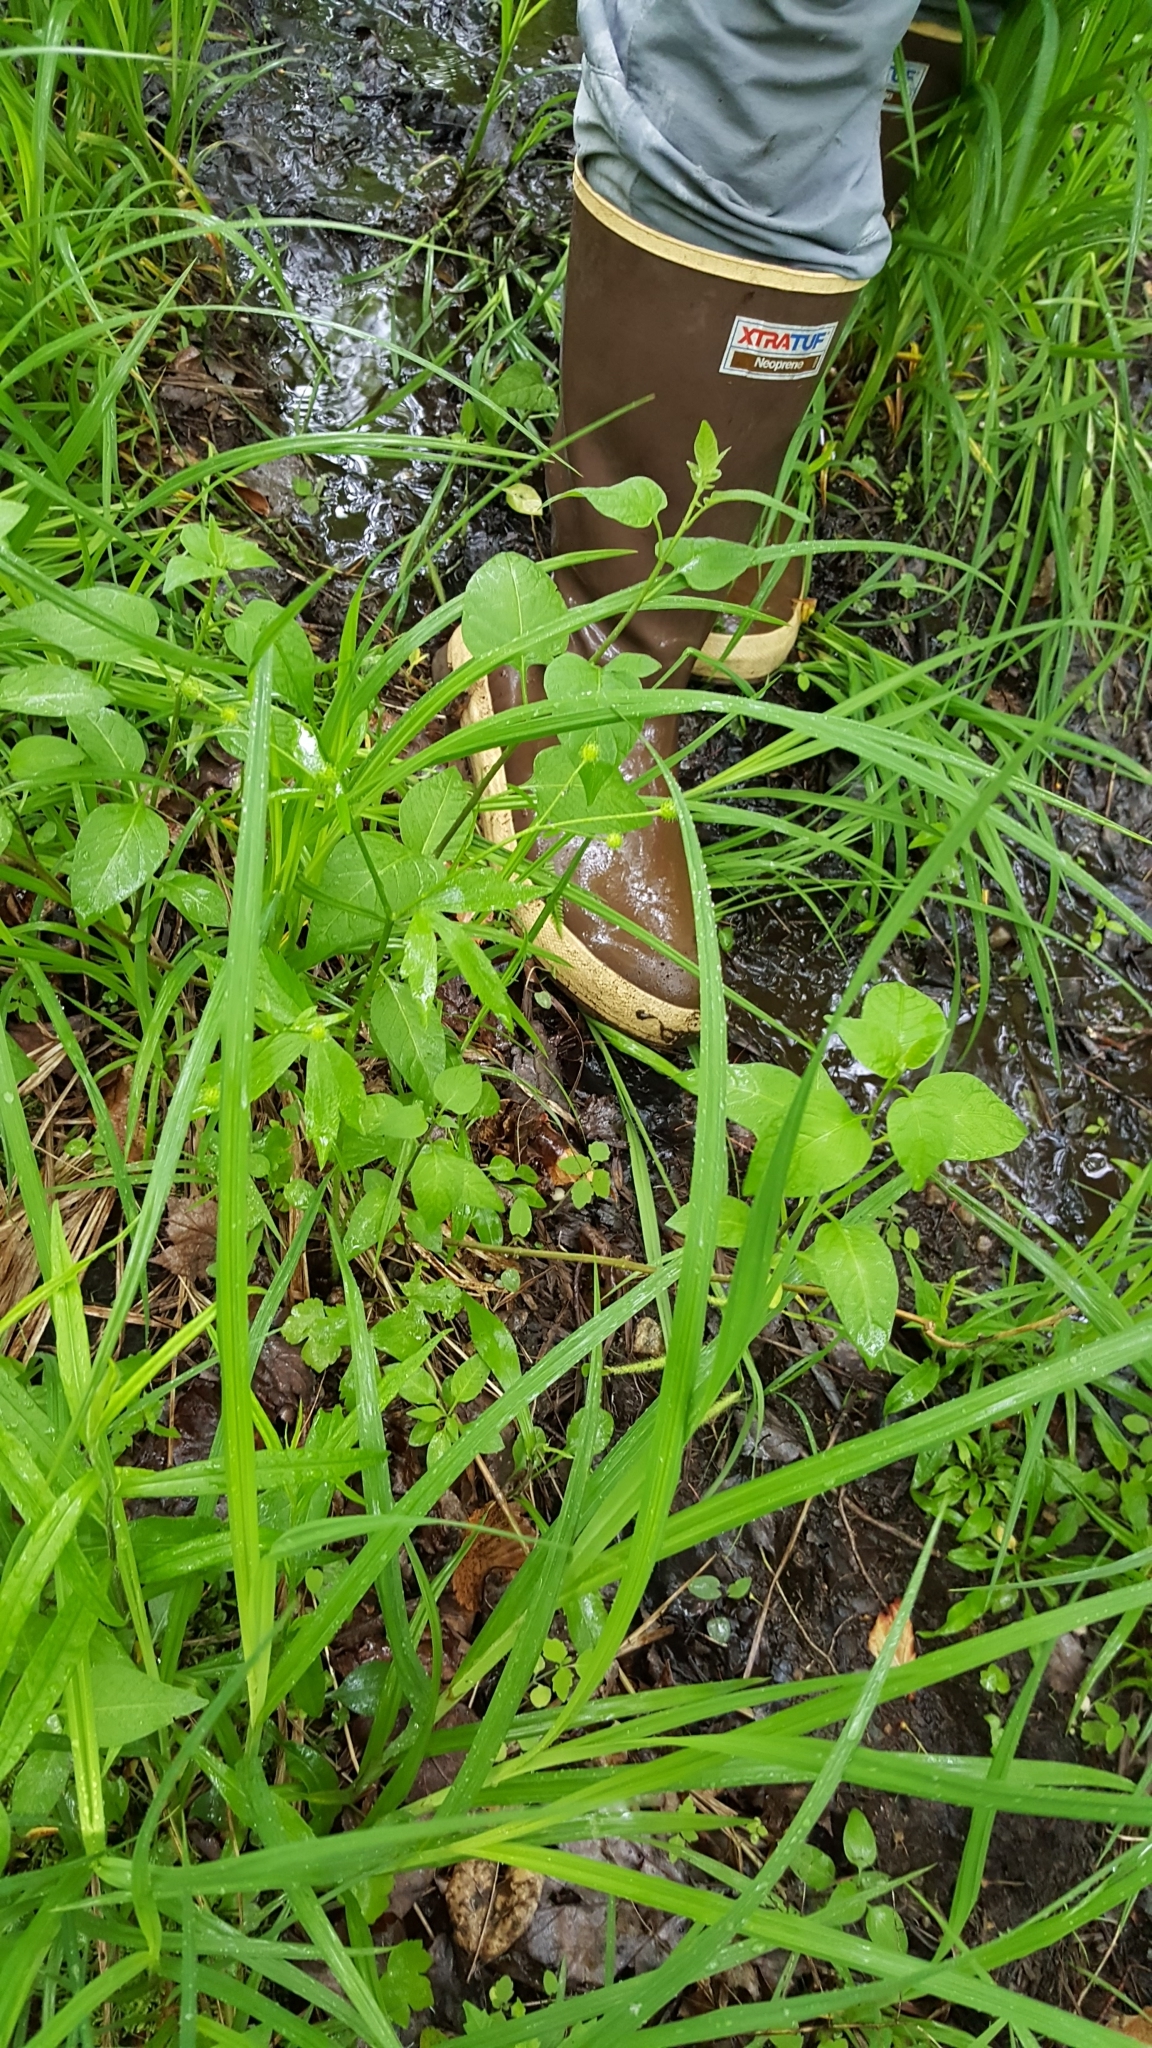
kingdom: Plantae
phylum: Tracheophyta
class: Magnoliopsida
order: Solanales
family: Solanaceae
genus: Solanum
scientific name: Solanum dulcamara
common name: Climbing nightshade
